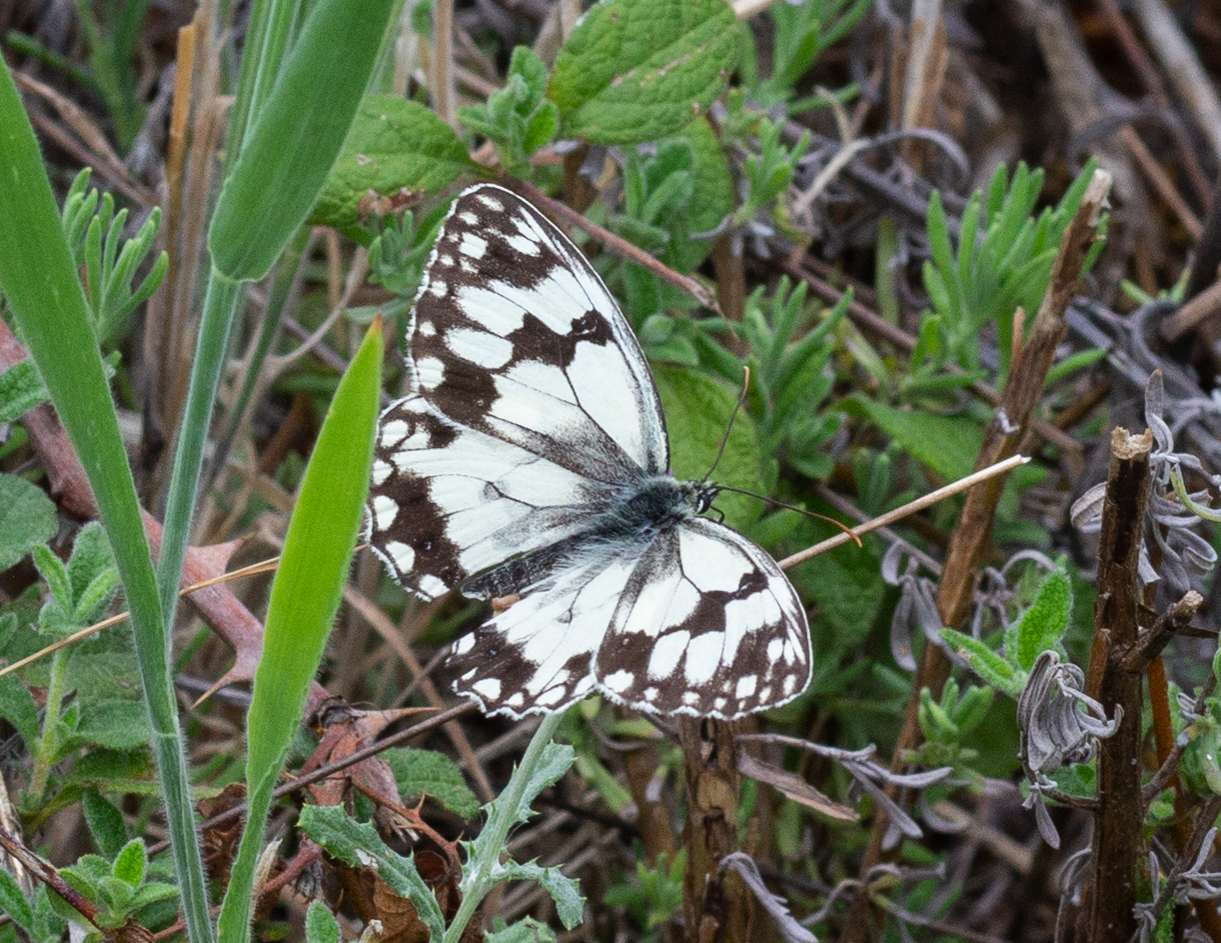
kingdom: Animalia
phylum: Arthropoda
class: Insecta
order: Lepidoptera
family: Nymphalidae
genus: Melanargia
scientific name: Melanargia lachesis
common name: Iberian marbled white
